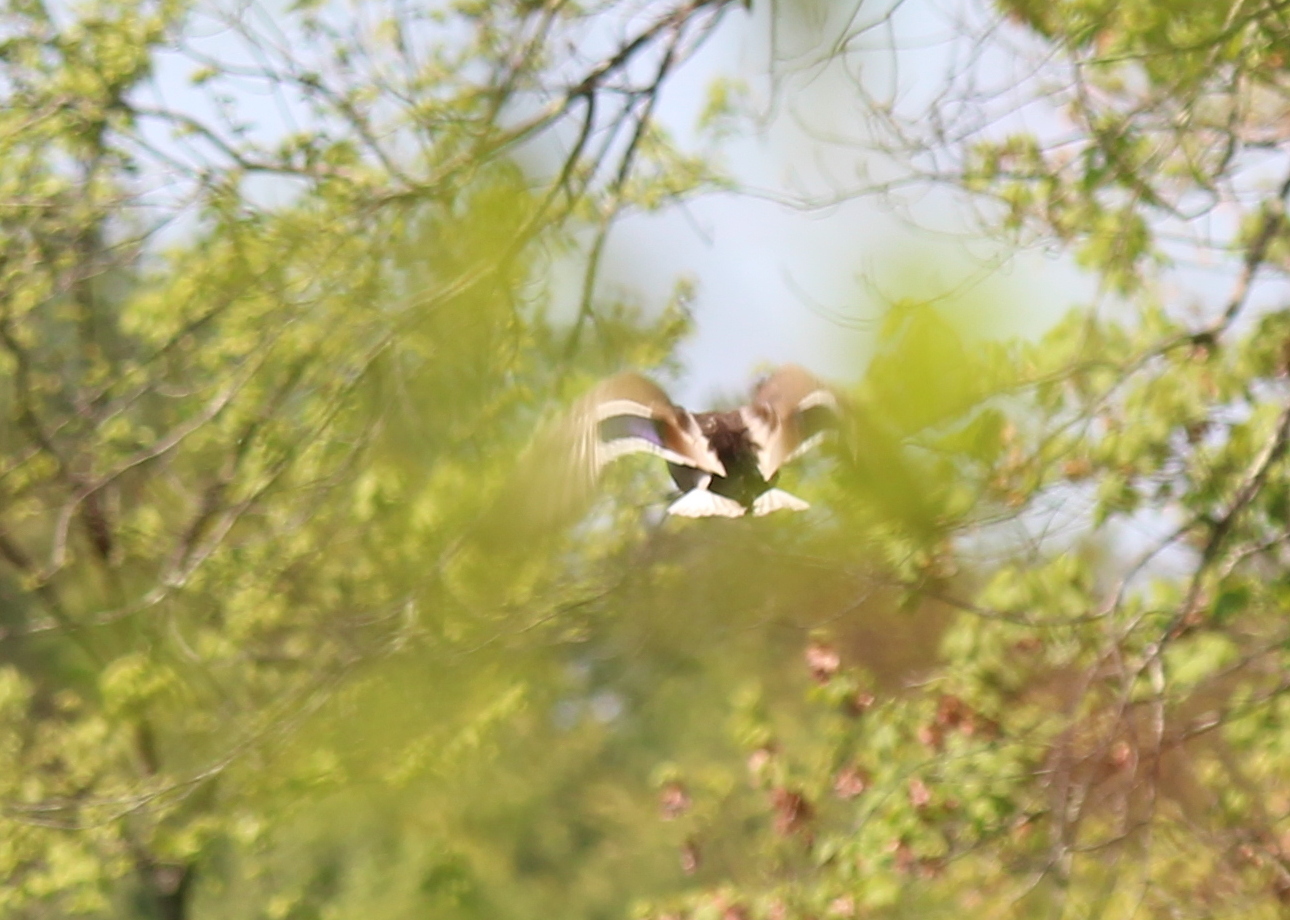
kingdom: Animalia
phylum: Chordata
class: Aves
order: Anseriformes
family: Anatidae
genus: Anas
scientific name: Anas platyrhynchos
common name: Mallard
